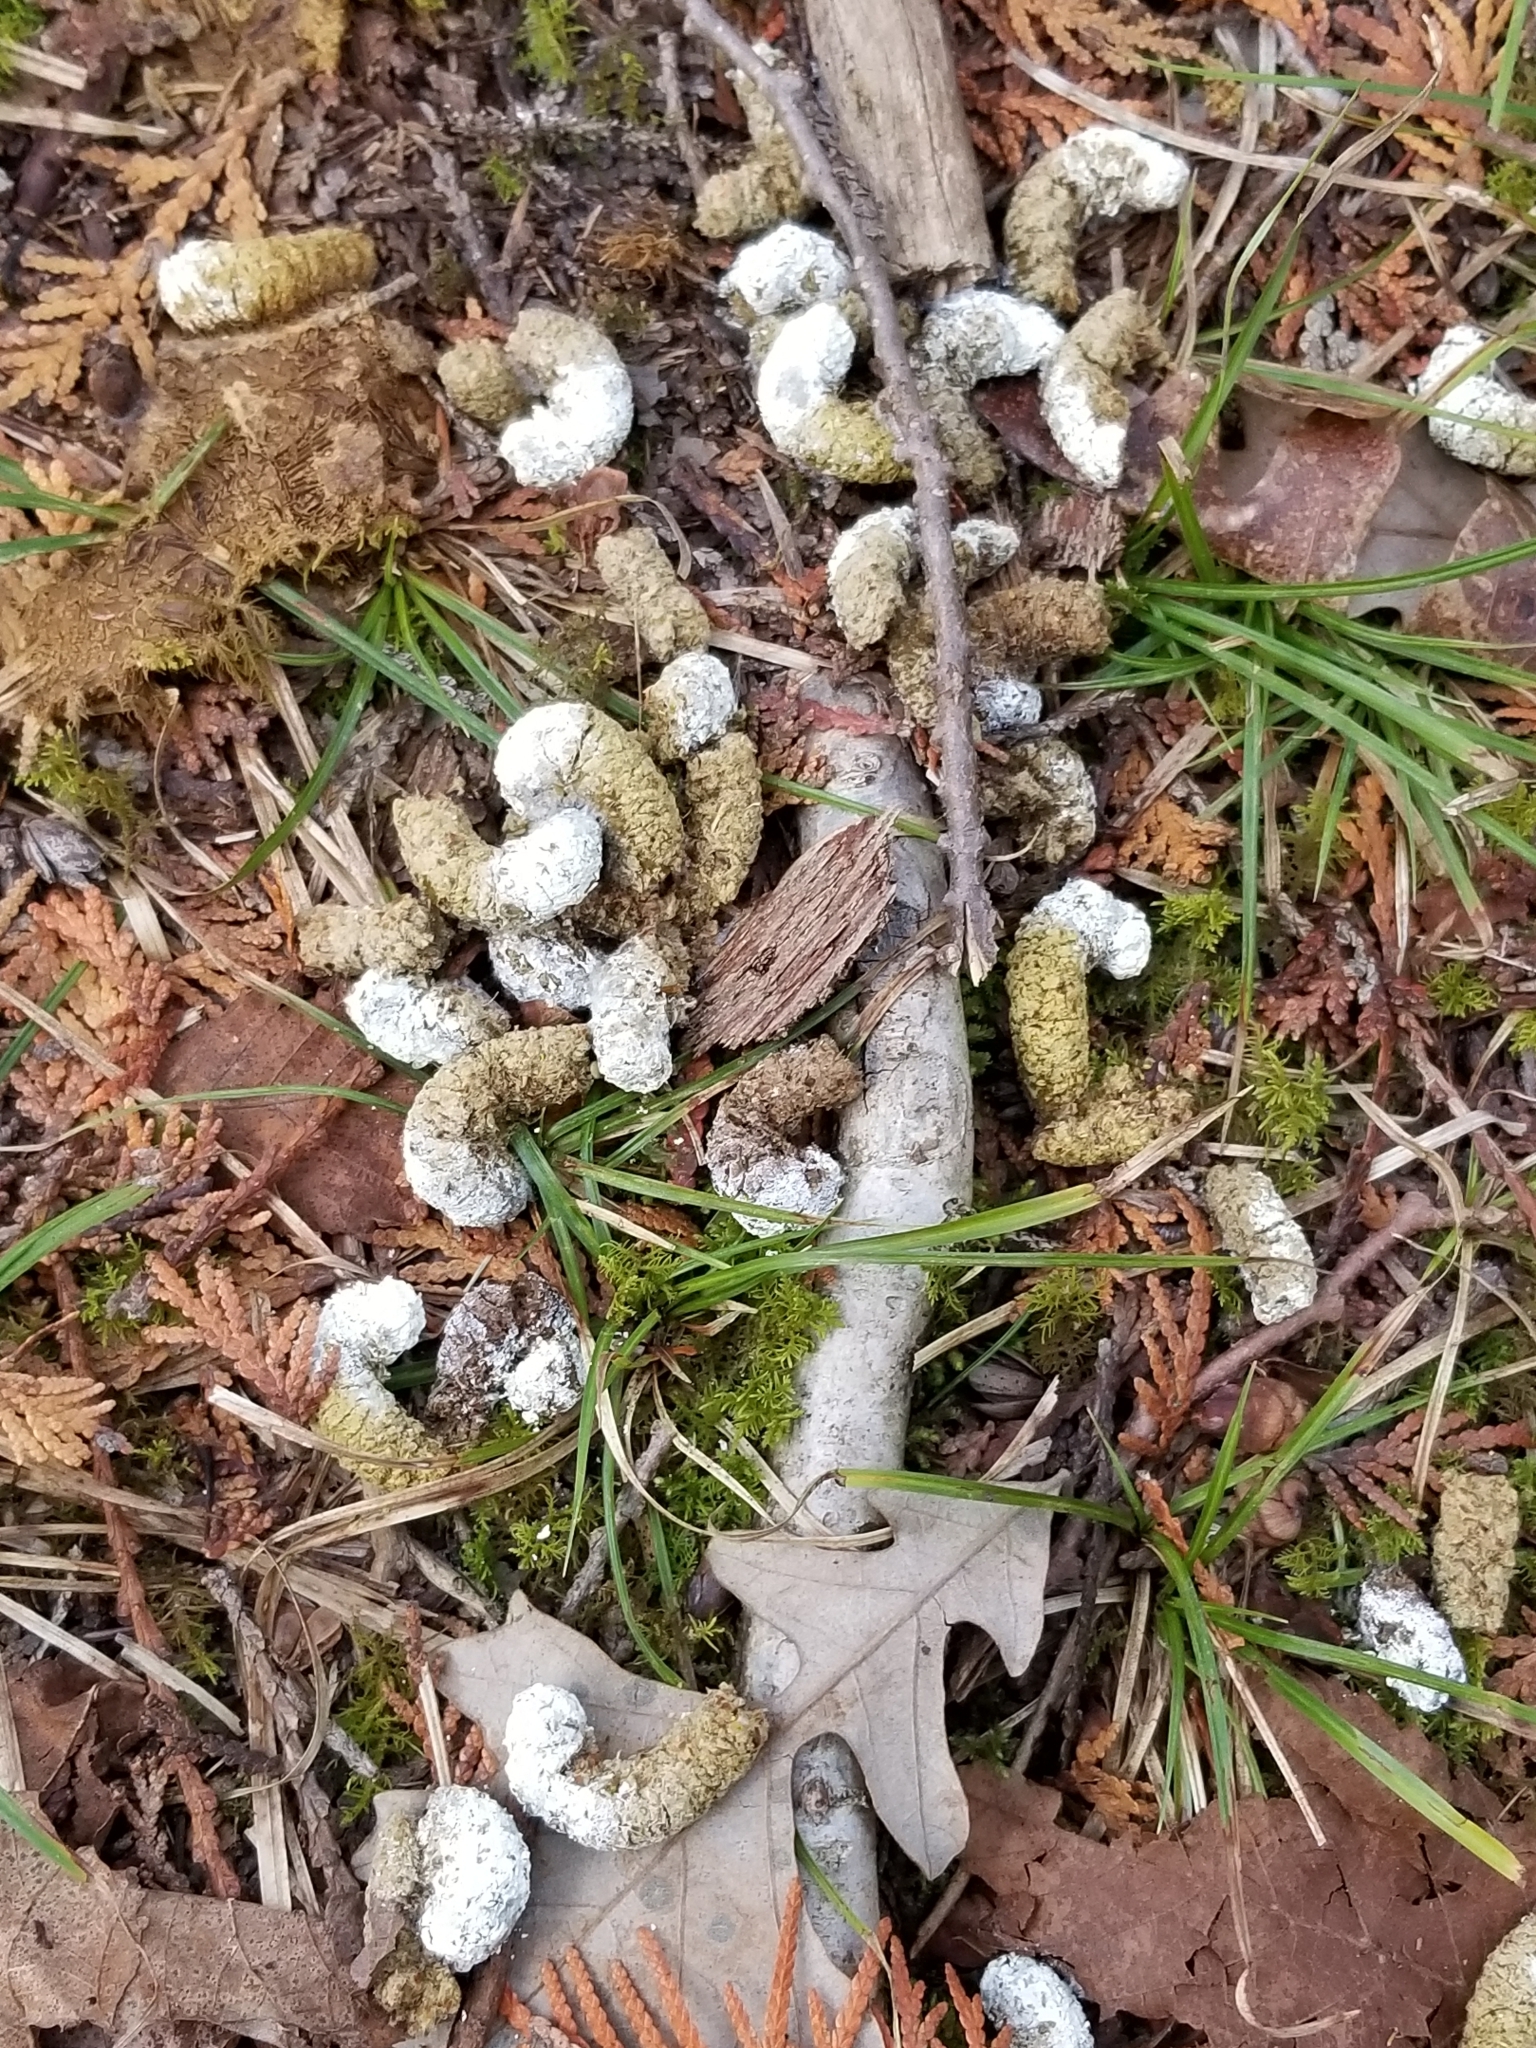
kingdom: Animalia
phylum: Chordata
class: Aves
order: Galliformes
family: Phasianidae
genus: Bonasa
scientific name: Bonasa umbellus
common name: Ruffed grouse
